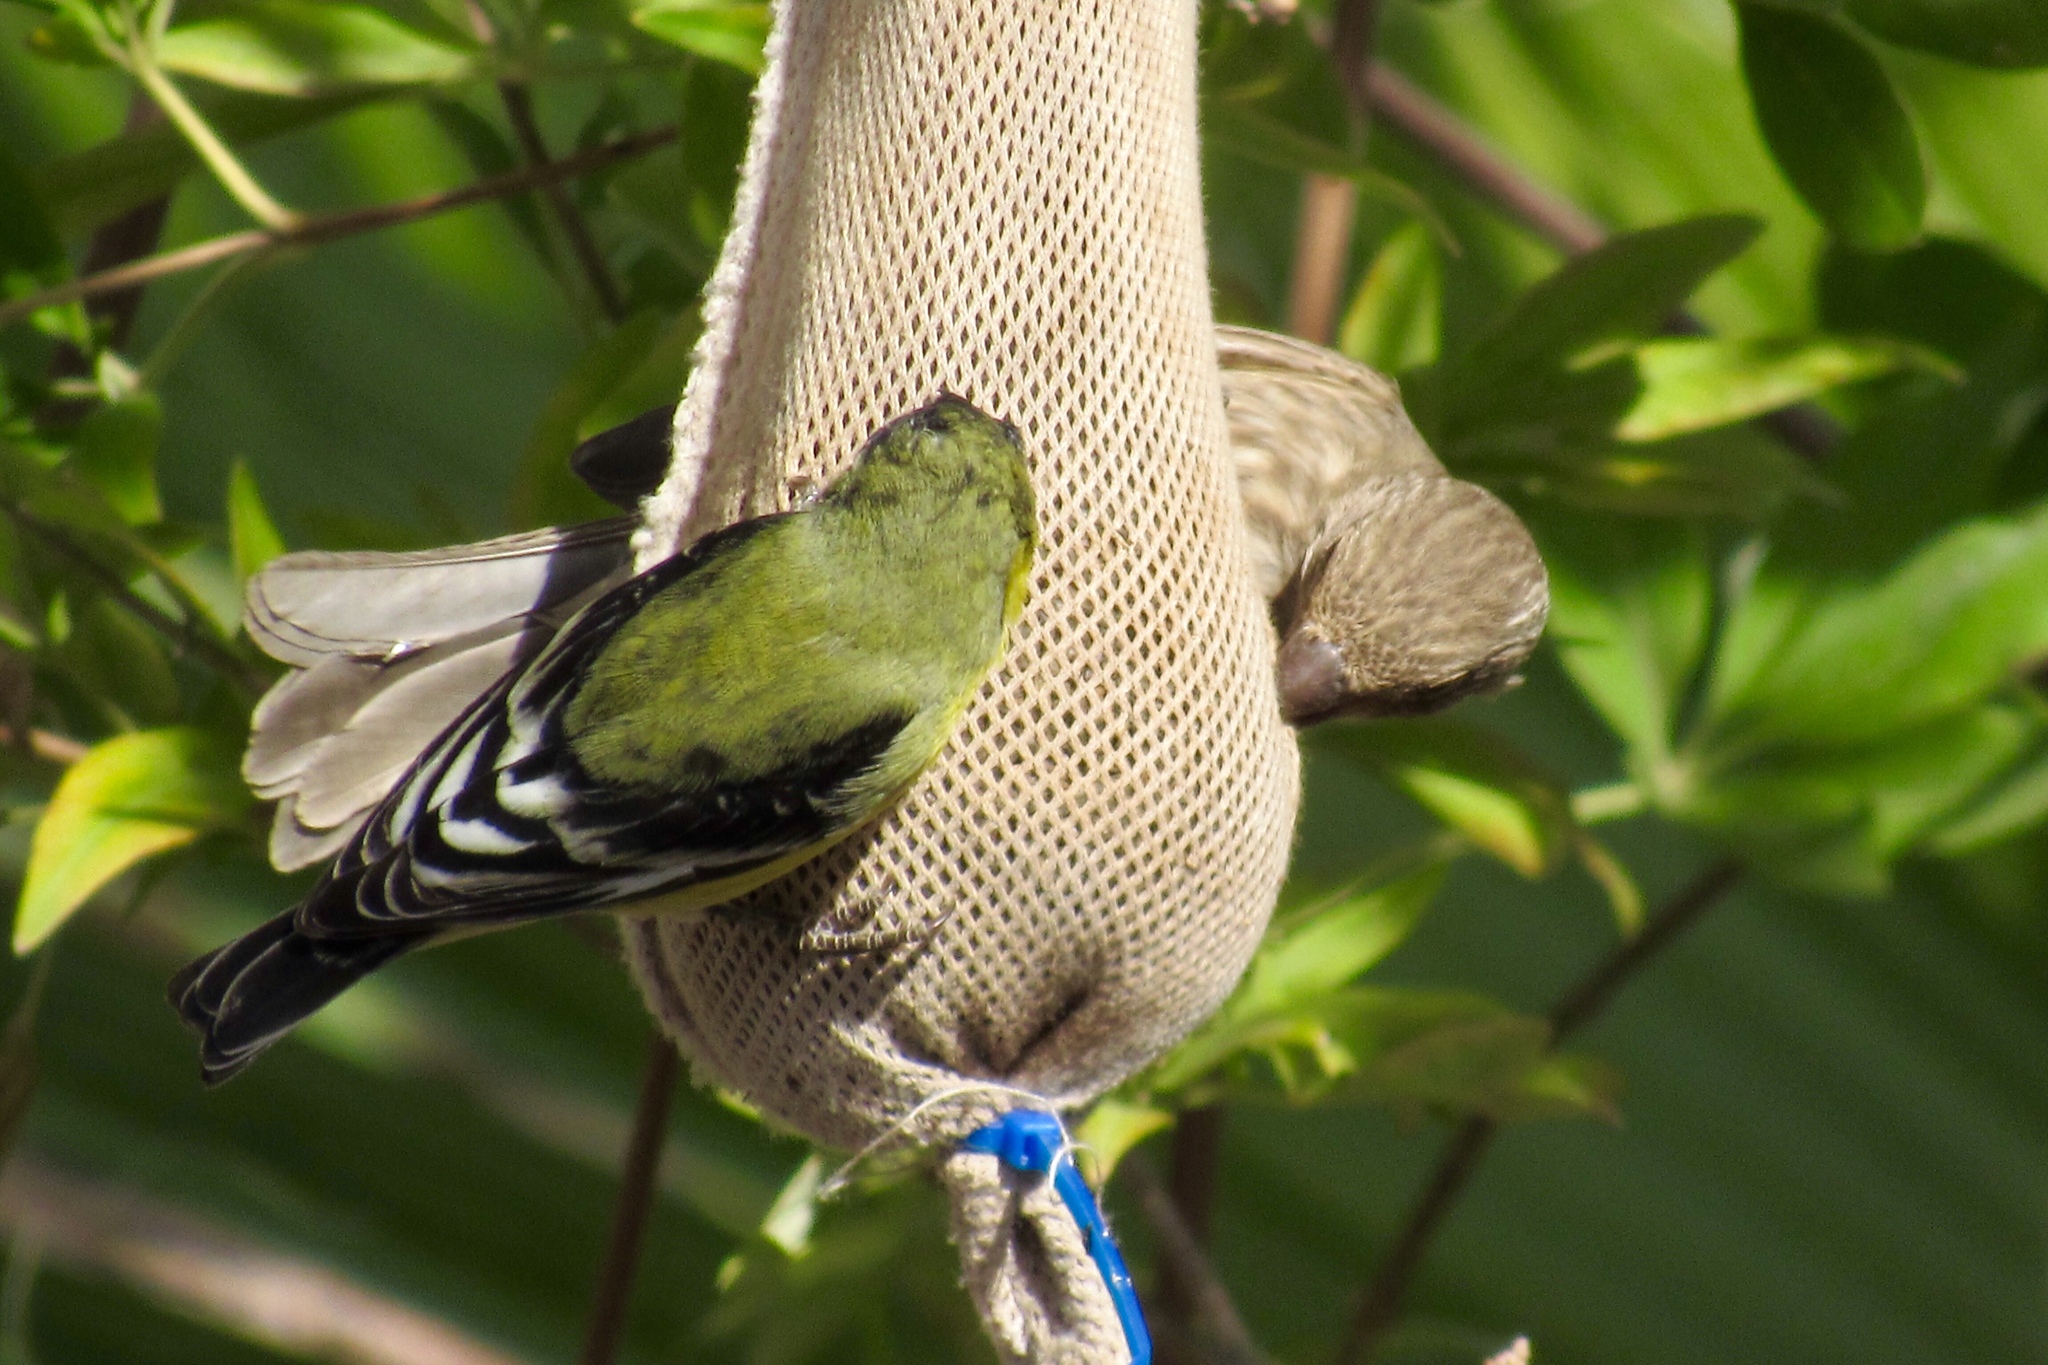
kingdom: Animalia
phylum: Chordata
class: Aves
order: Passeriformes
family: Fringillidae
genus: Spinus
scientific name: Spinus psaltria
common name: Lesser goldfinch
